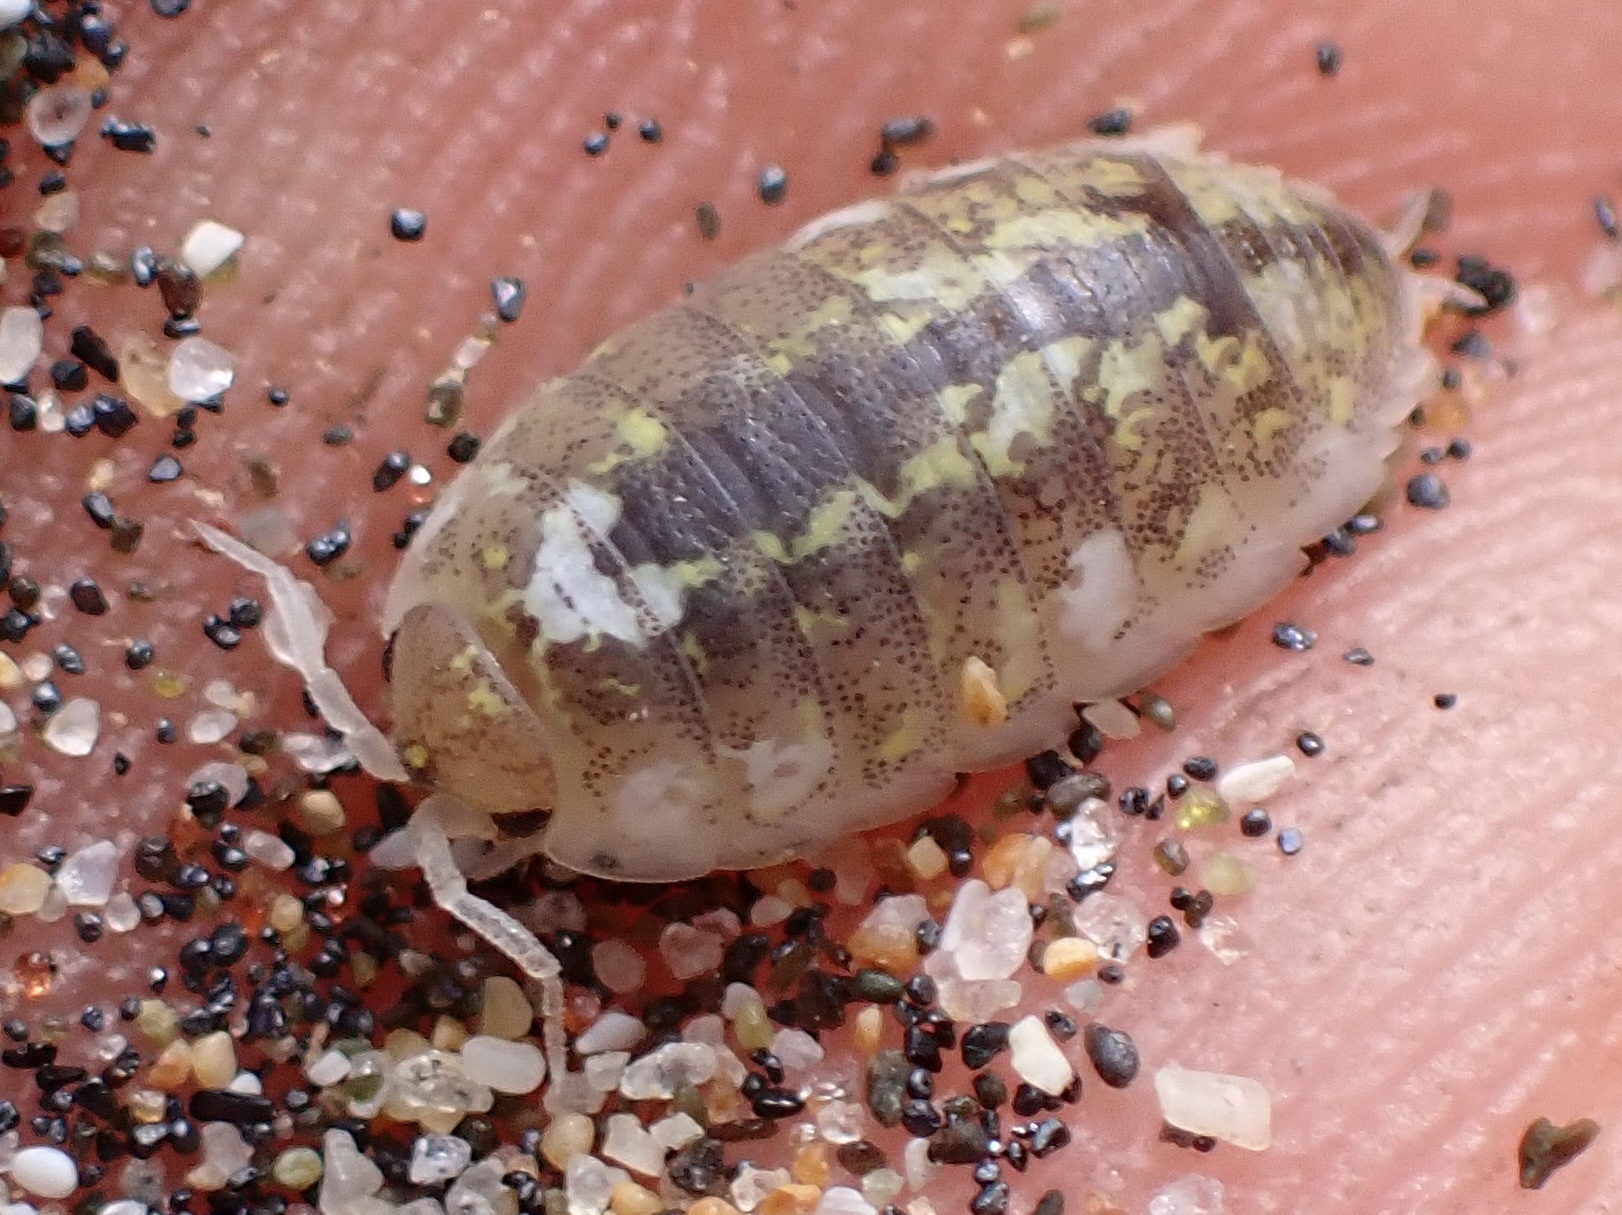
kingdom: Animalia
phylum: Arthropoda
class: Malacostraca
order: Isopoda
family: Alloniscidae
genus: Alloniscus
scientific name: Alloniscus perconvexus
